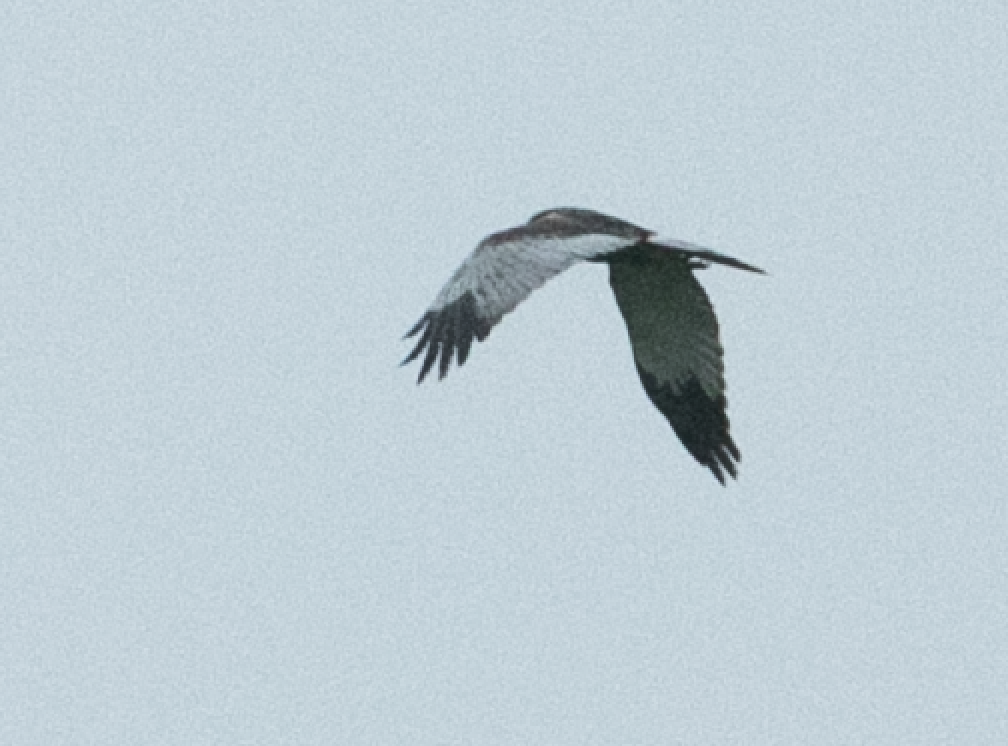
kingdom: Animalia
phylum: Chordata
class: Aves
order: Accipitriformes
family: Accipitridae
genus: Circus
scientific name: Circus aeruginosus
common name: Western marsh harrier
